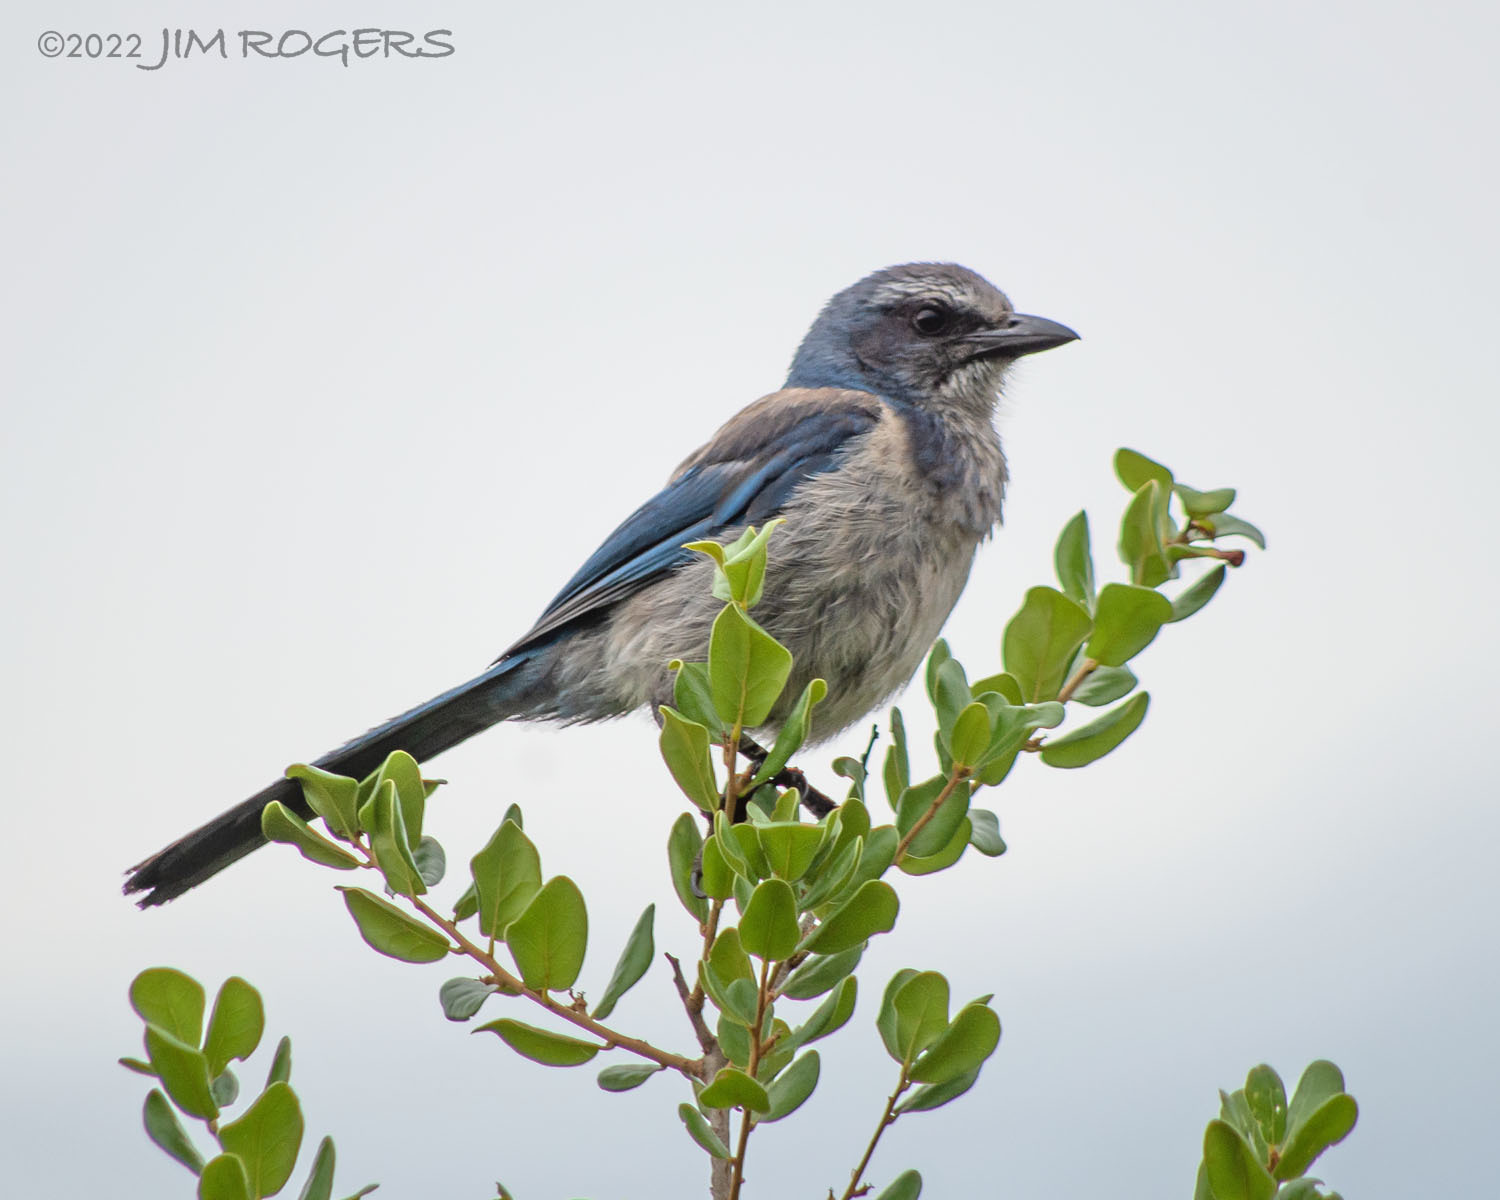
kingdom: Animalia
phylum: Chordata
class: Aves
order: Passeriformes
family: Corvidae
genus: Aphelocoma
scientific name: Aphelocoma coerulescens
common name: Florida scrub jay
